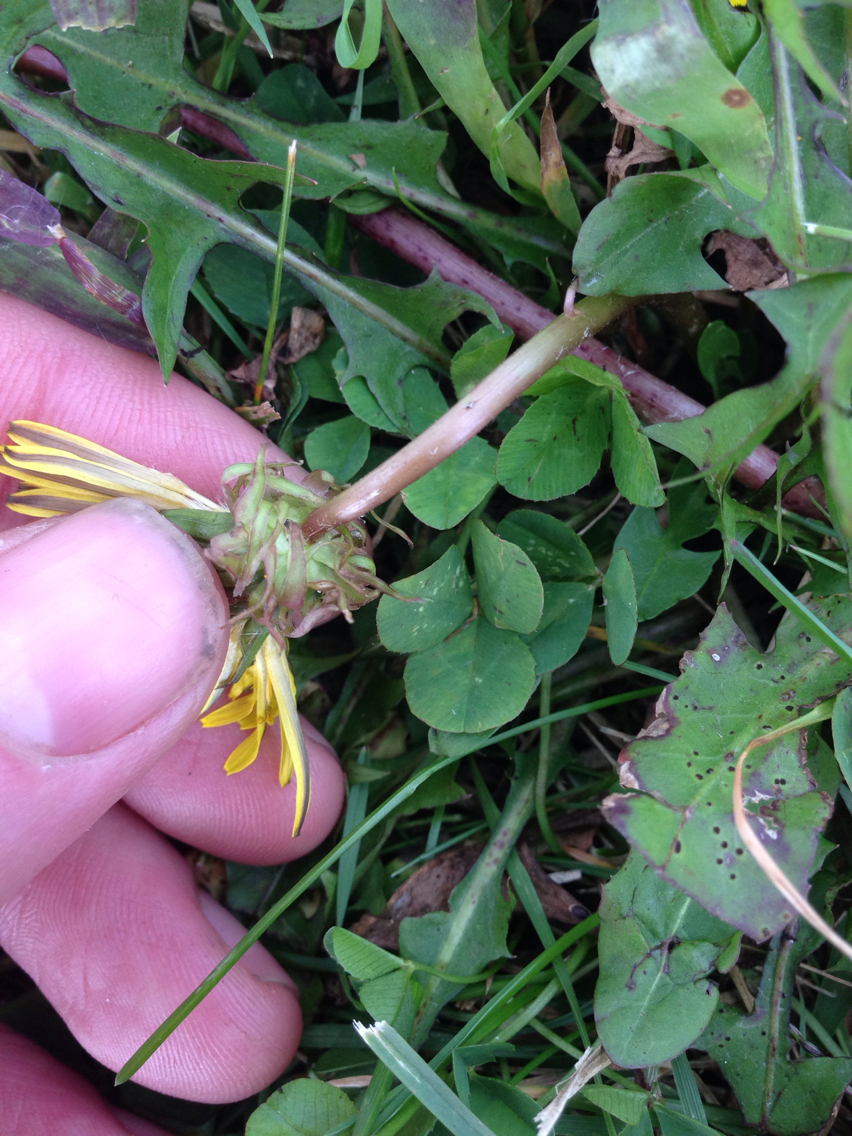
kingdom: Plantae
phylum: Tracheophyta
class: Magnoliopsida
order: Asterales
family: Asteraceae
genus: Taraxacum
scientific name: Taraxacum
